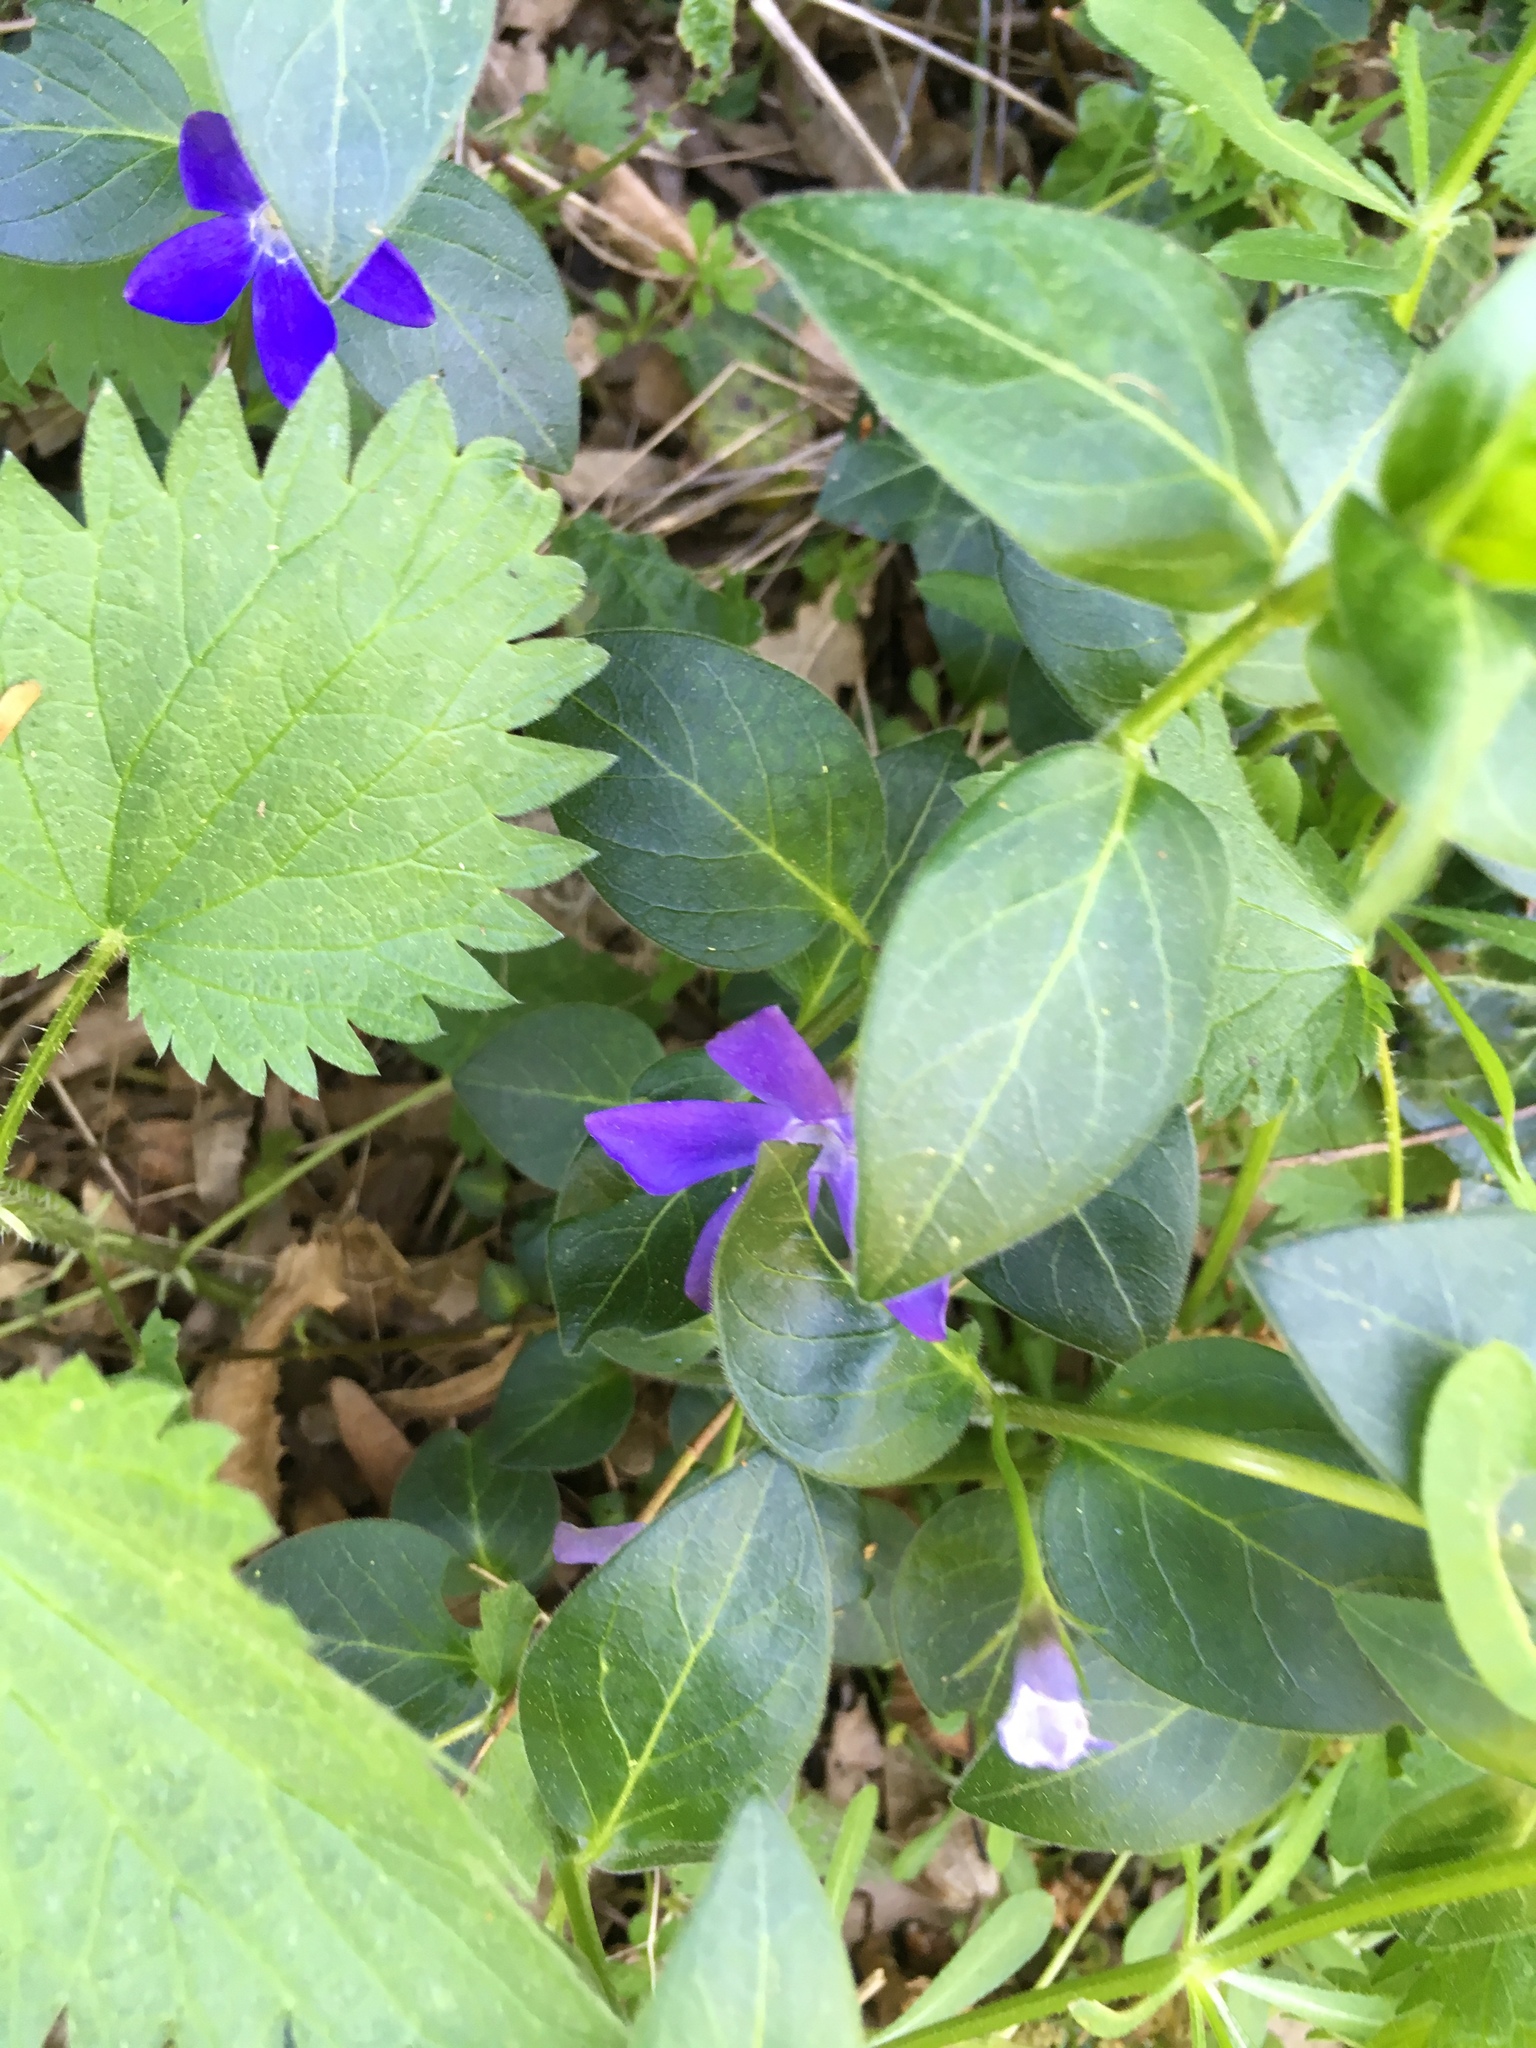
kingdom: Plantae
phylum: Tracheophyta
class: Magnoliopsida
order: Gentianales
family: Apocynaceae
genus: Vinca
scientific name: Vinca major
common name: Greater periwinkle
